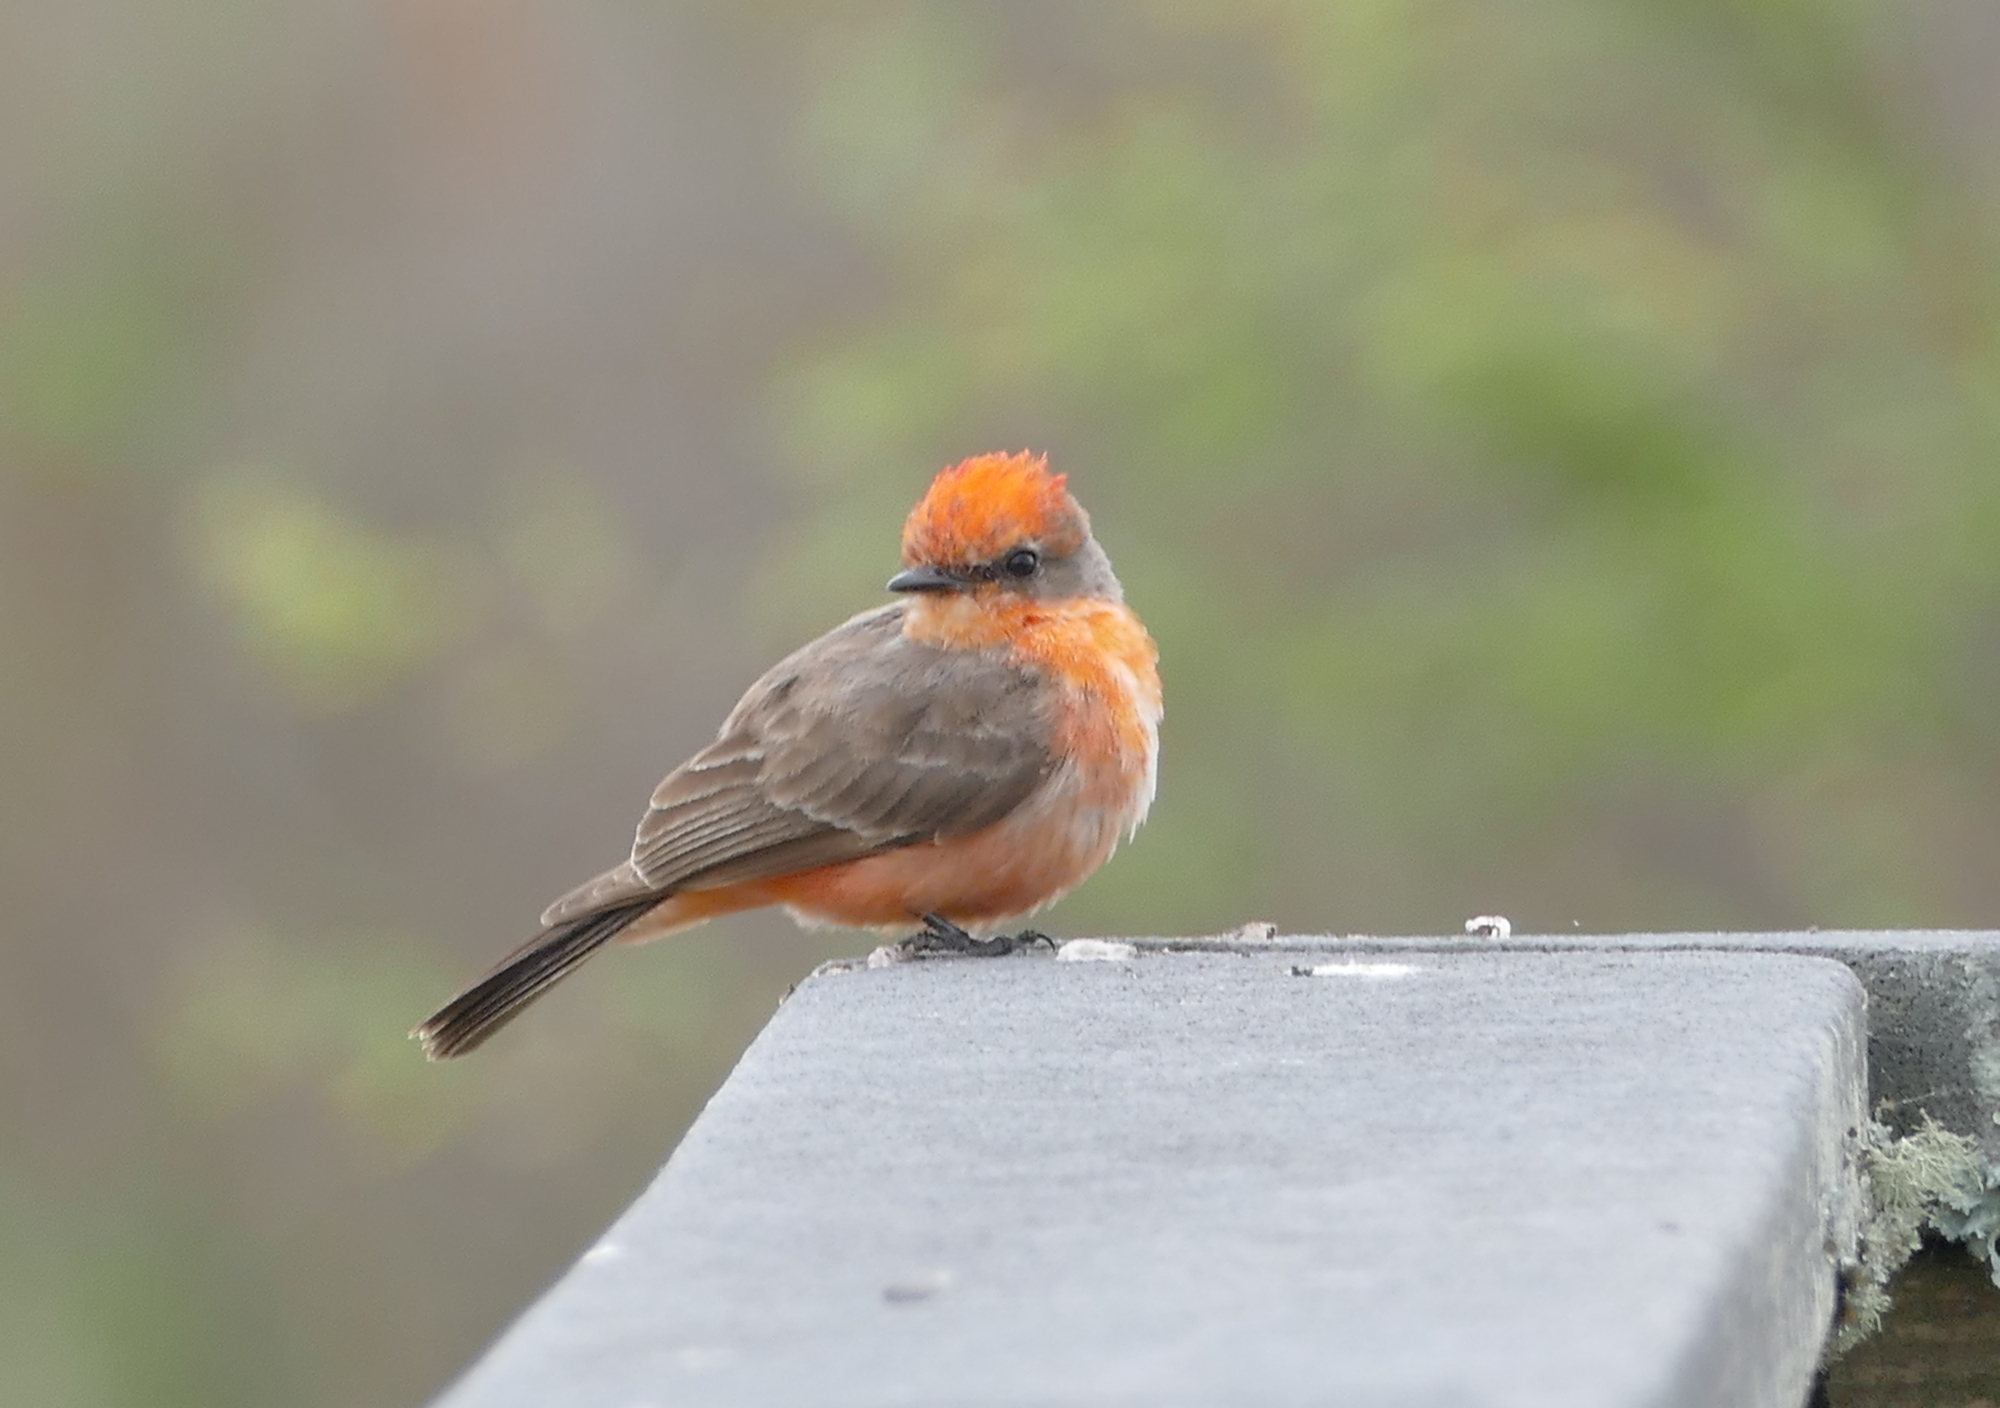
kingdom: Animalia
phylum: Chordata
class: Aves
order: Passeriformes
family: Tyrannidae
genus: Pyrocephalus
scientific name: Pyrocephalus rubinus
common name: Vermilion flycatcher
